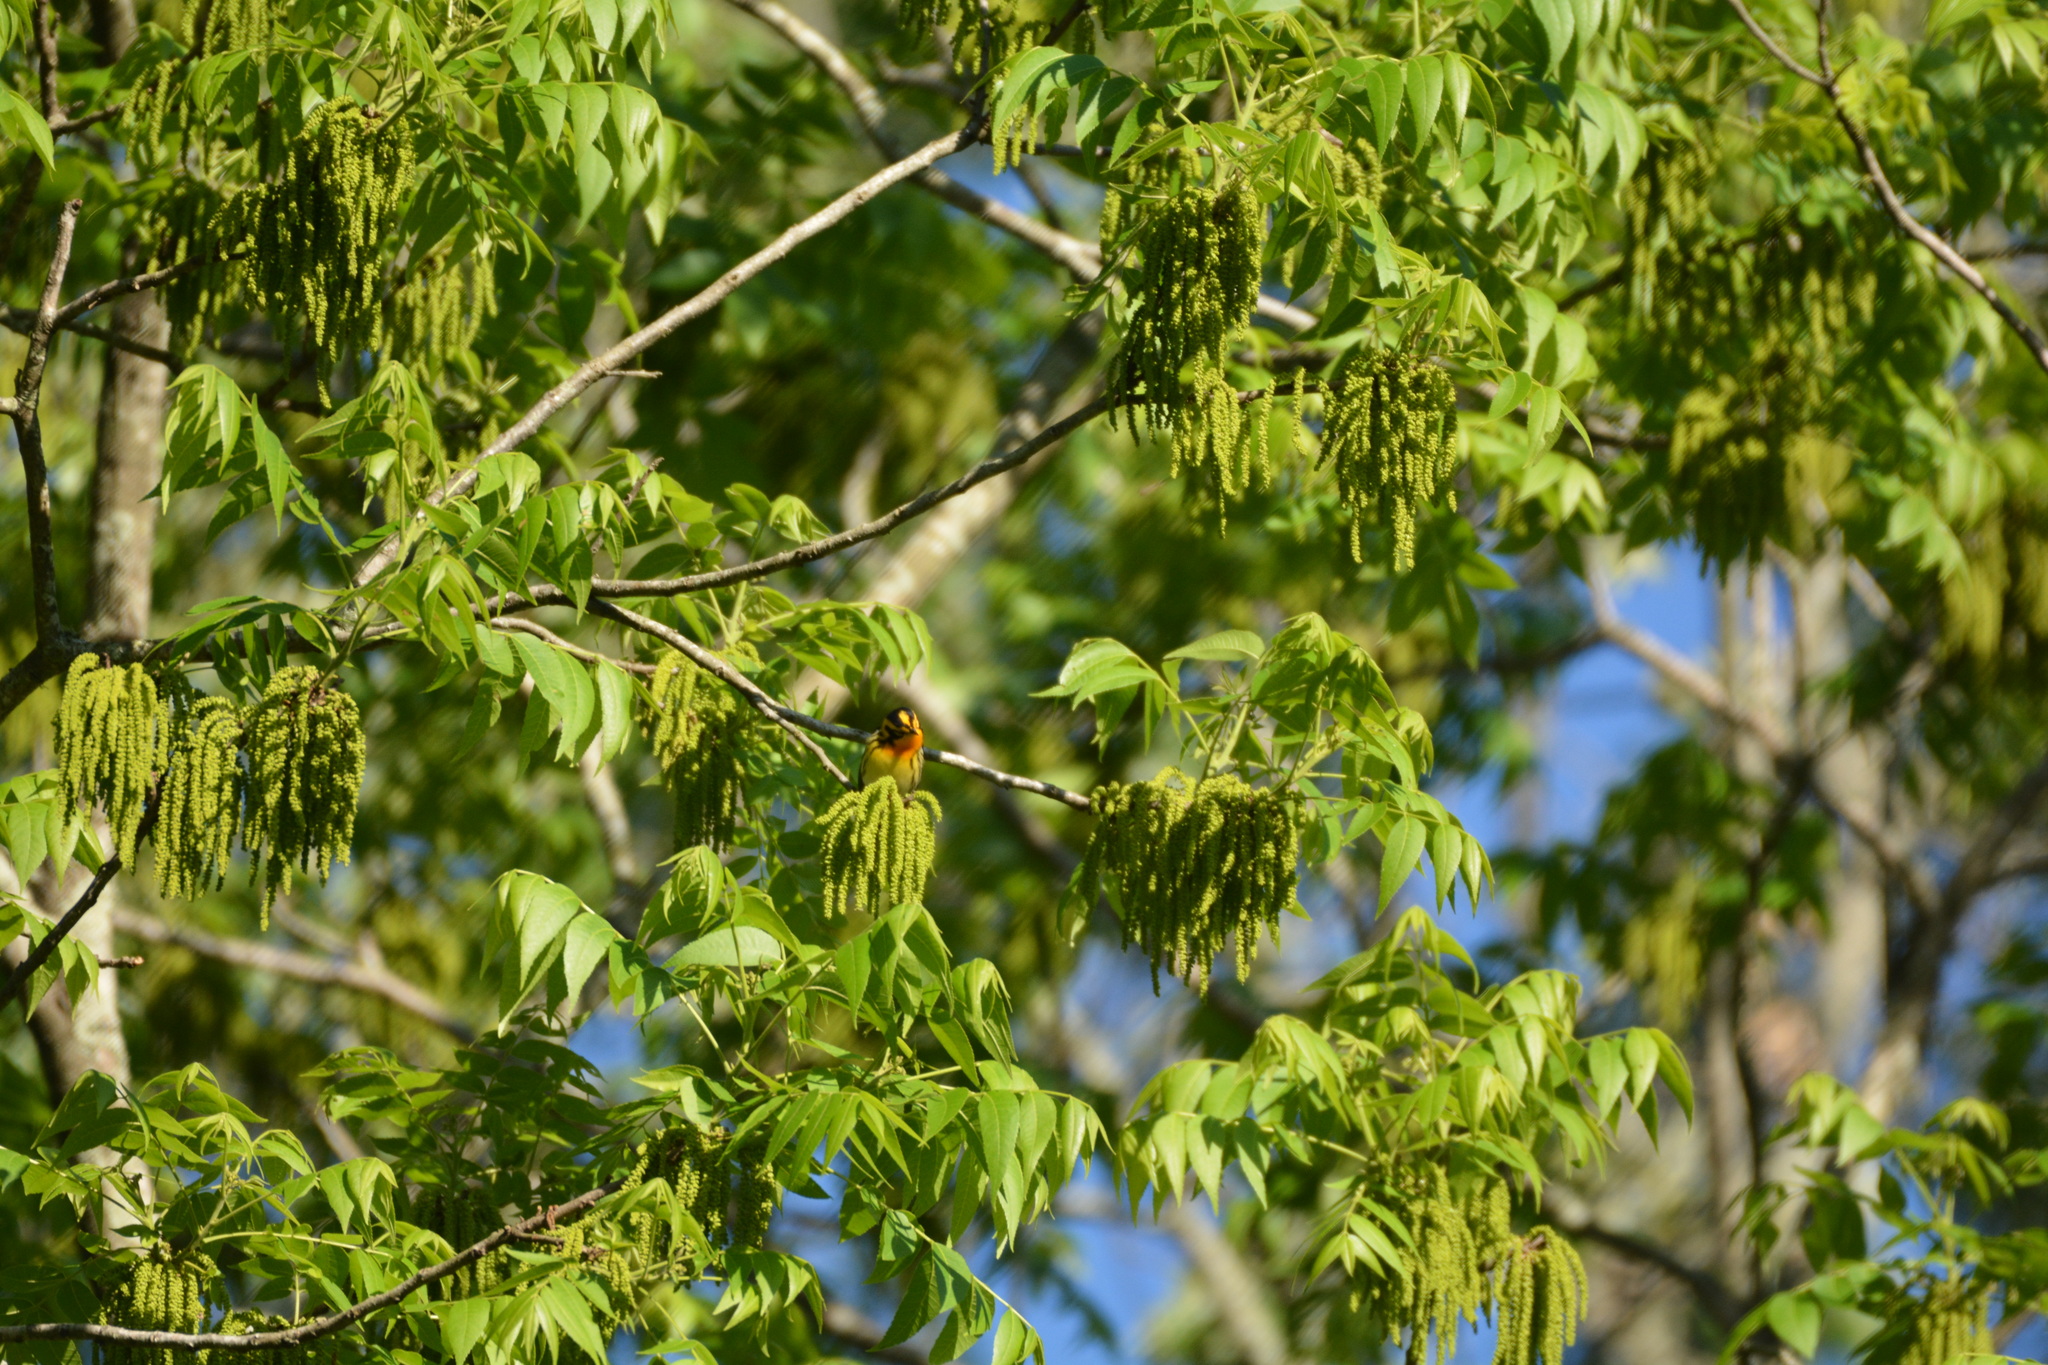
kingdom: Animalia
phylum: Chordata
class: Aves
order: Passeriformes
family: Parulidae
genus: Setophaga
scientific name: Setophaga fusca
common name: Blackburnian warbler
